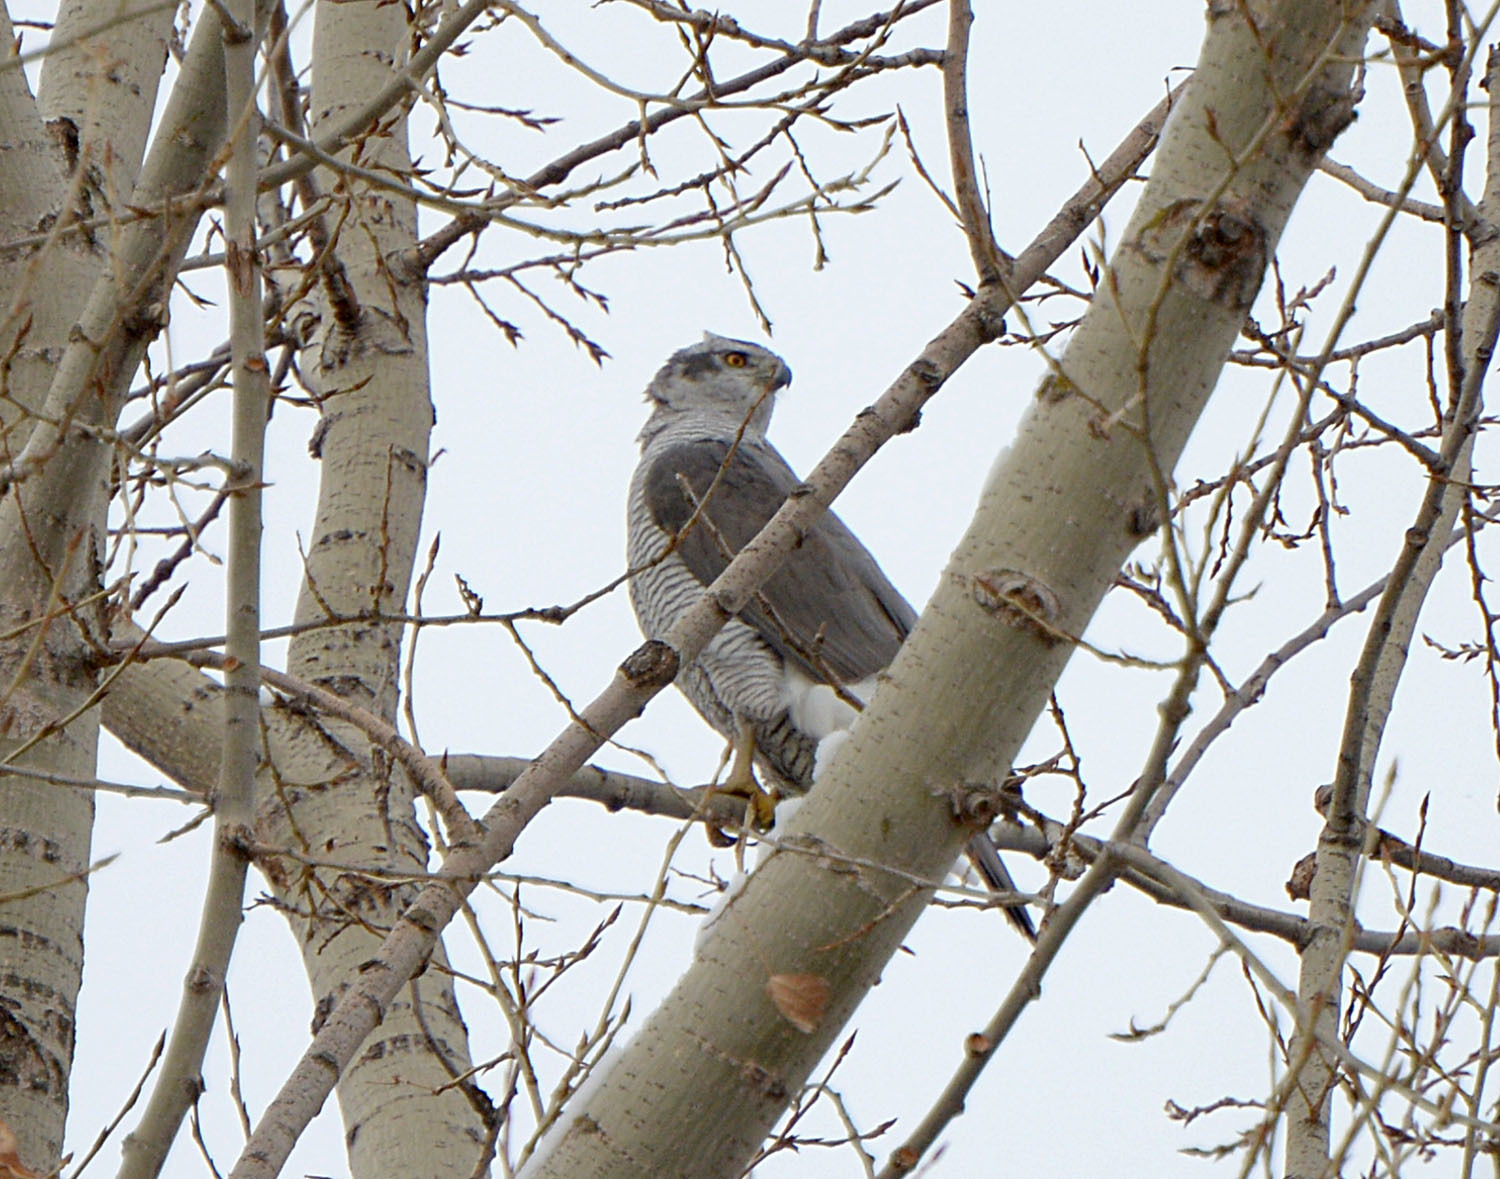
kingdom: Animalia
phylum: Chordata
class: Aves
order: Accipitriformes
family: Accipitridae
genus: Accipiter
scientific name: Accipiter gentilis
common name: Northern goshawk
